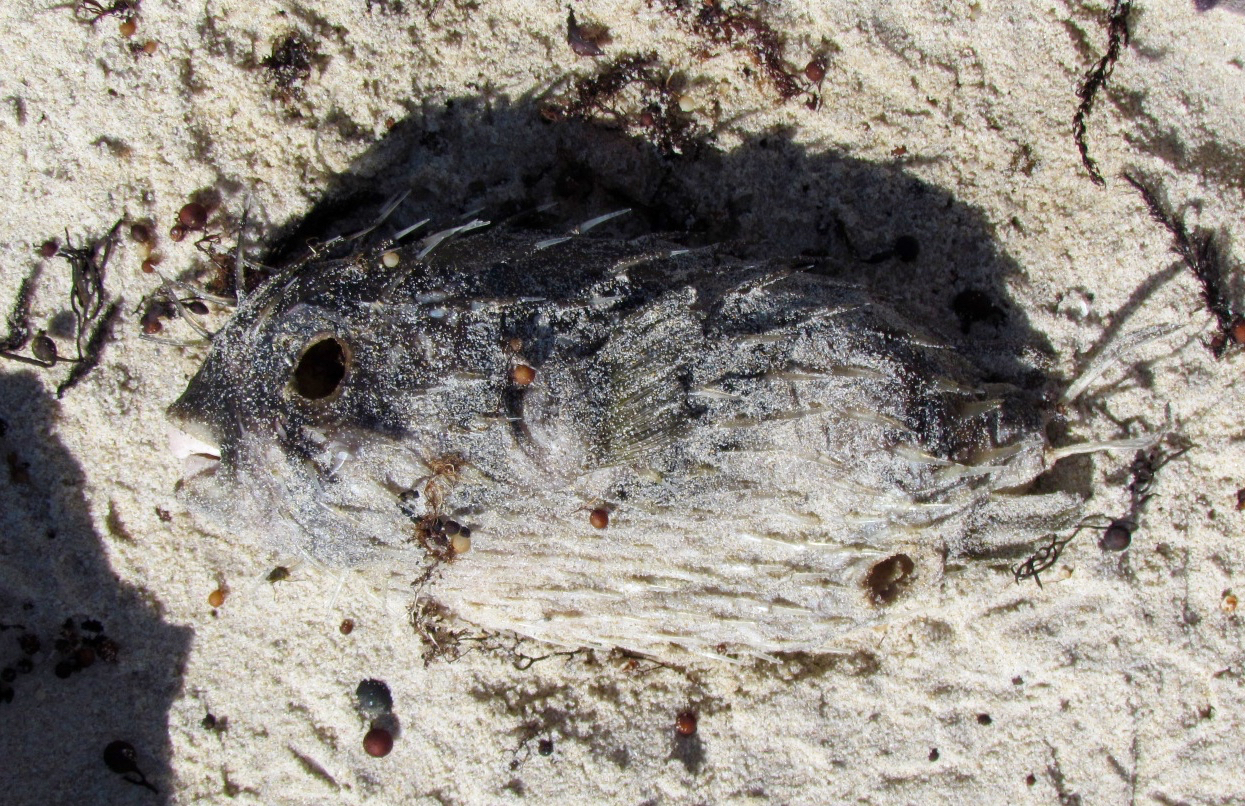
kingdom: Animalia
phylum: Chordata
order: Tetraodontiformes
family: Diodontidae
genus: Diodon
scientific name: Diodon nicthemerus
